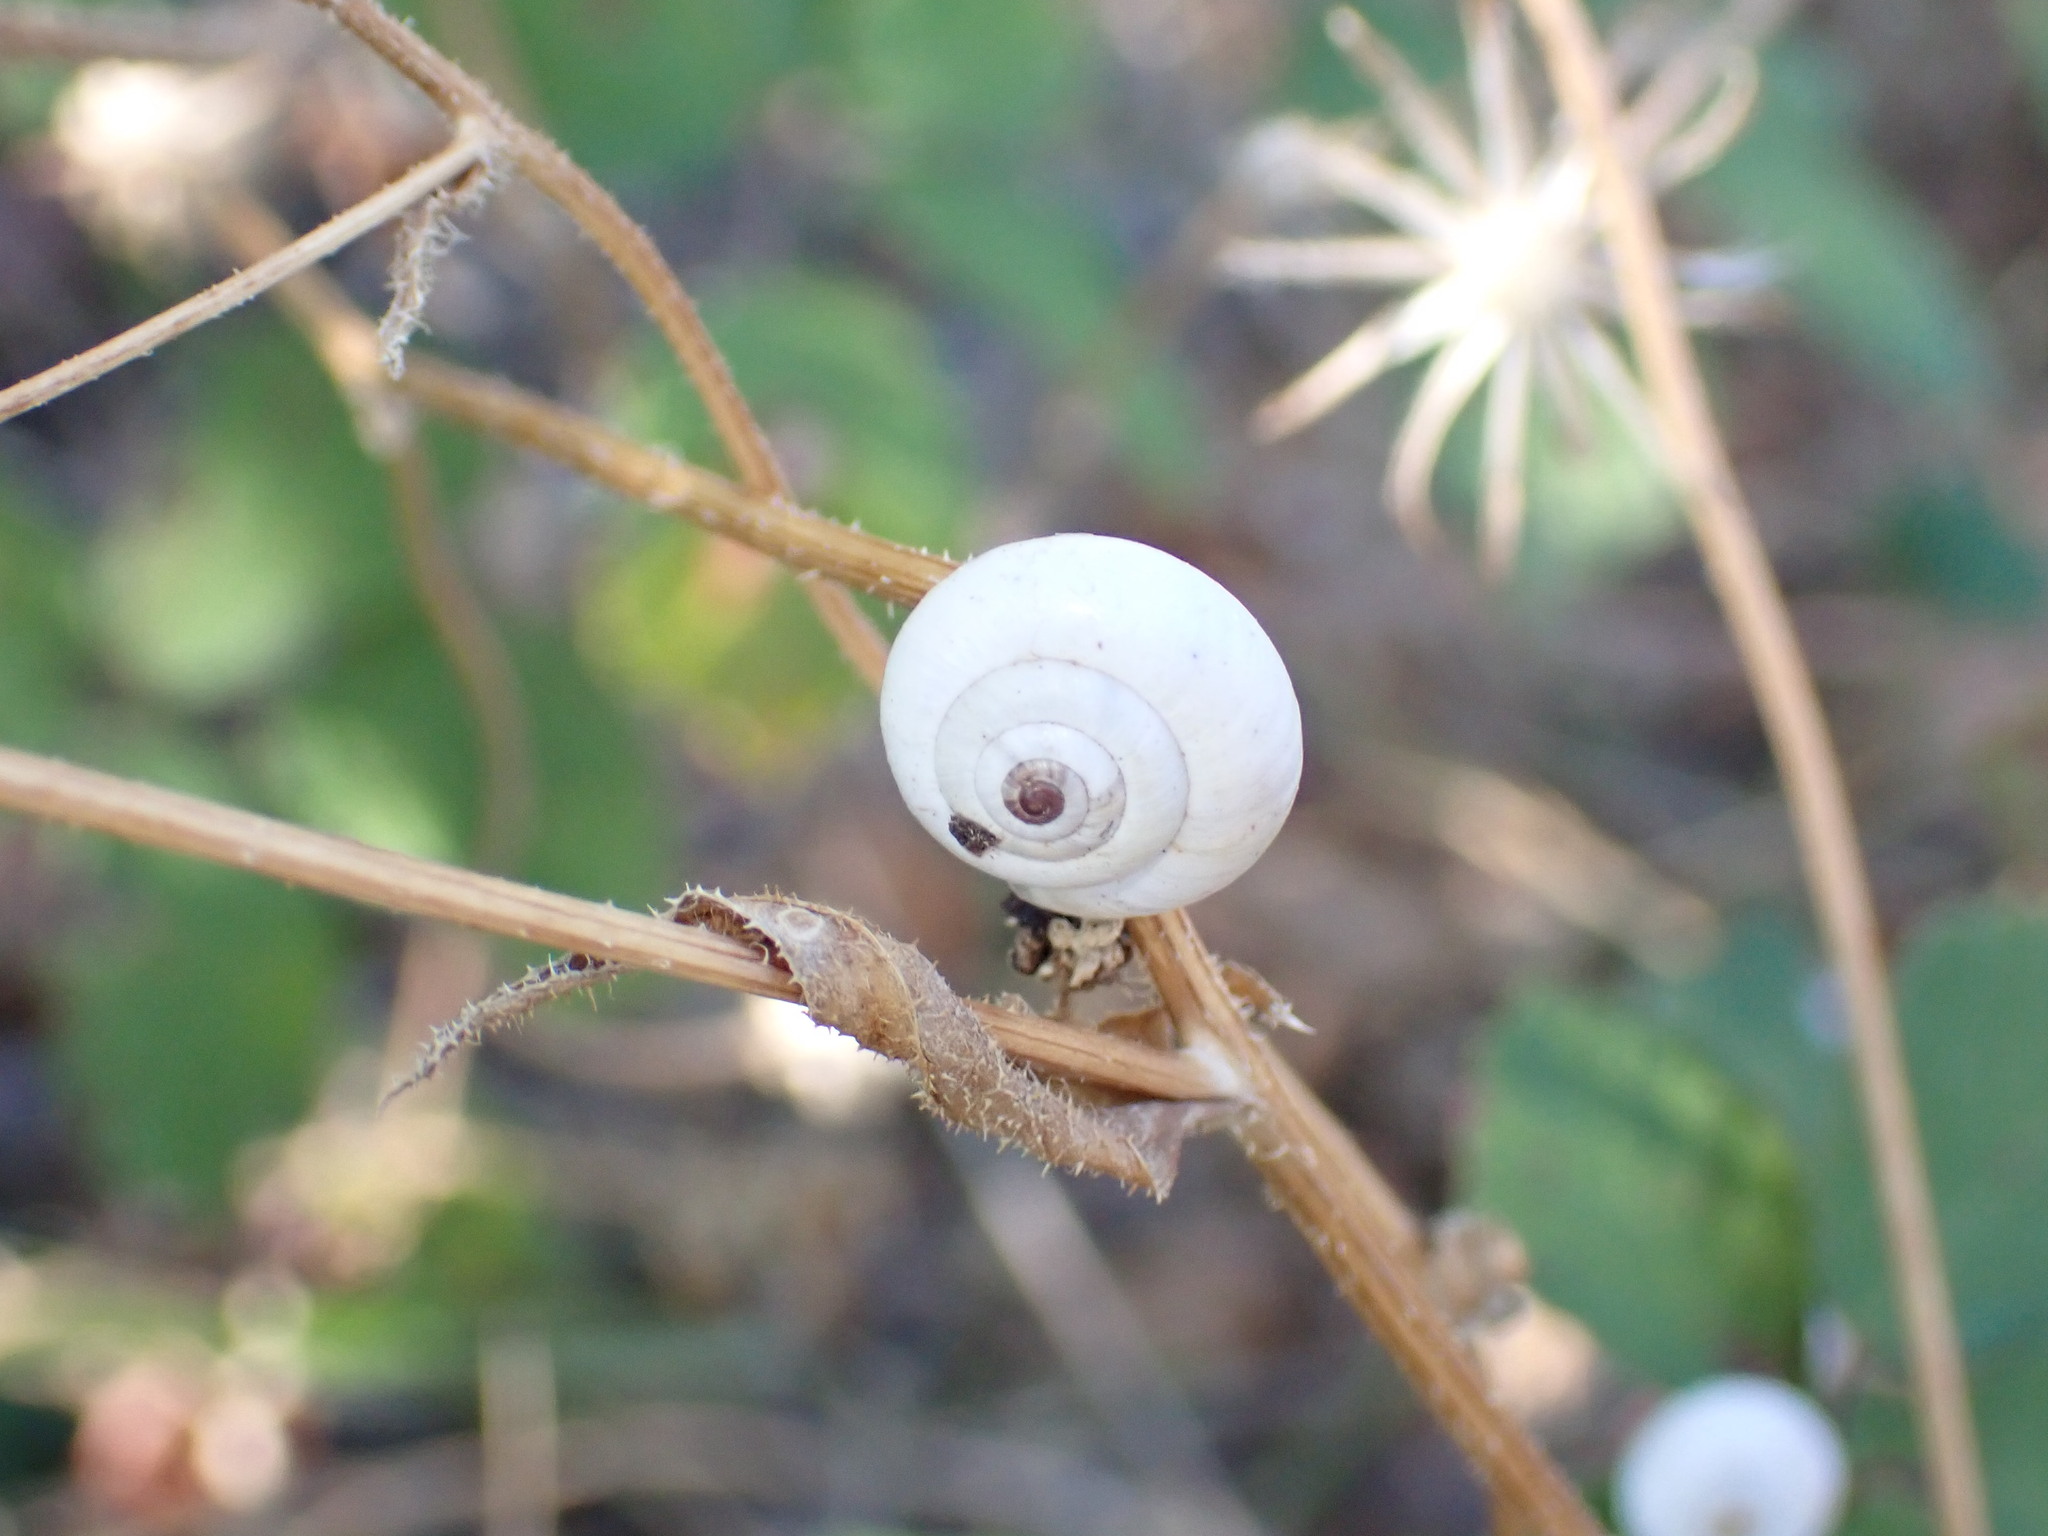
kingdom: Animalia
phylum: Mollusca
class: Gastropoda
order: Stylommatophora
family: Geomitridae
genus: Xeropicta
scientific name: Xeropicta derbentina
